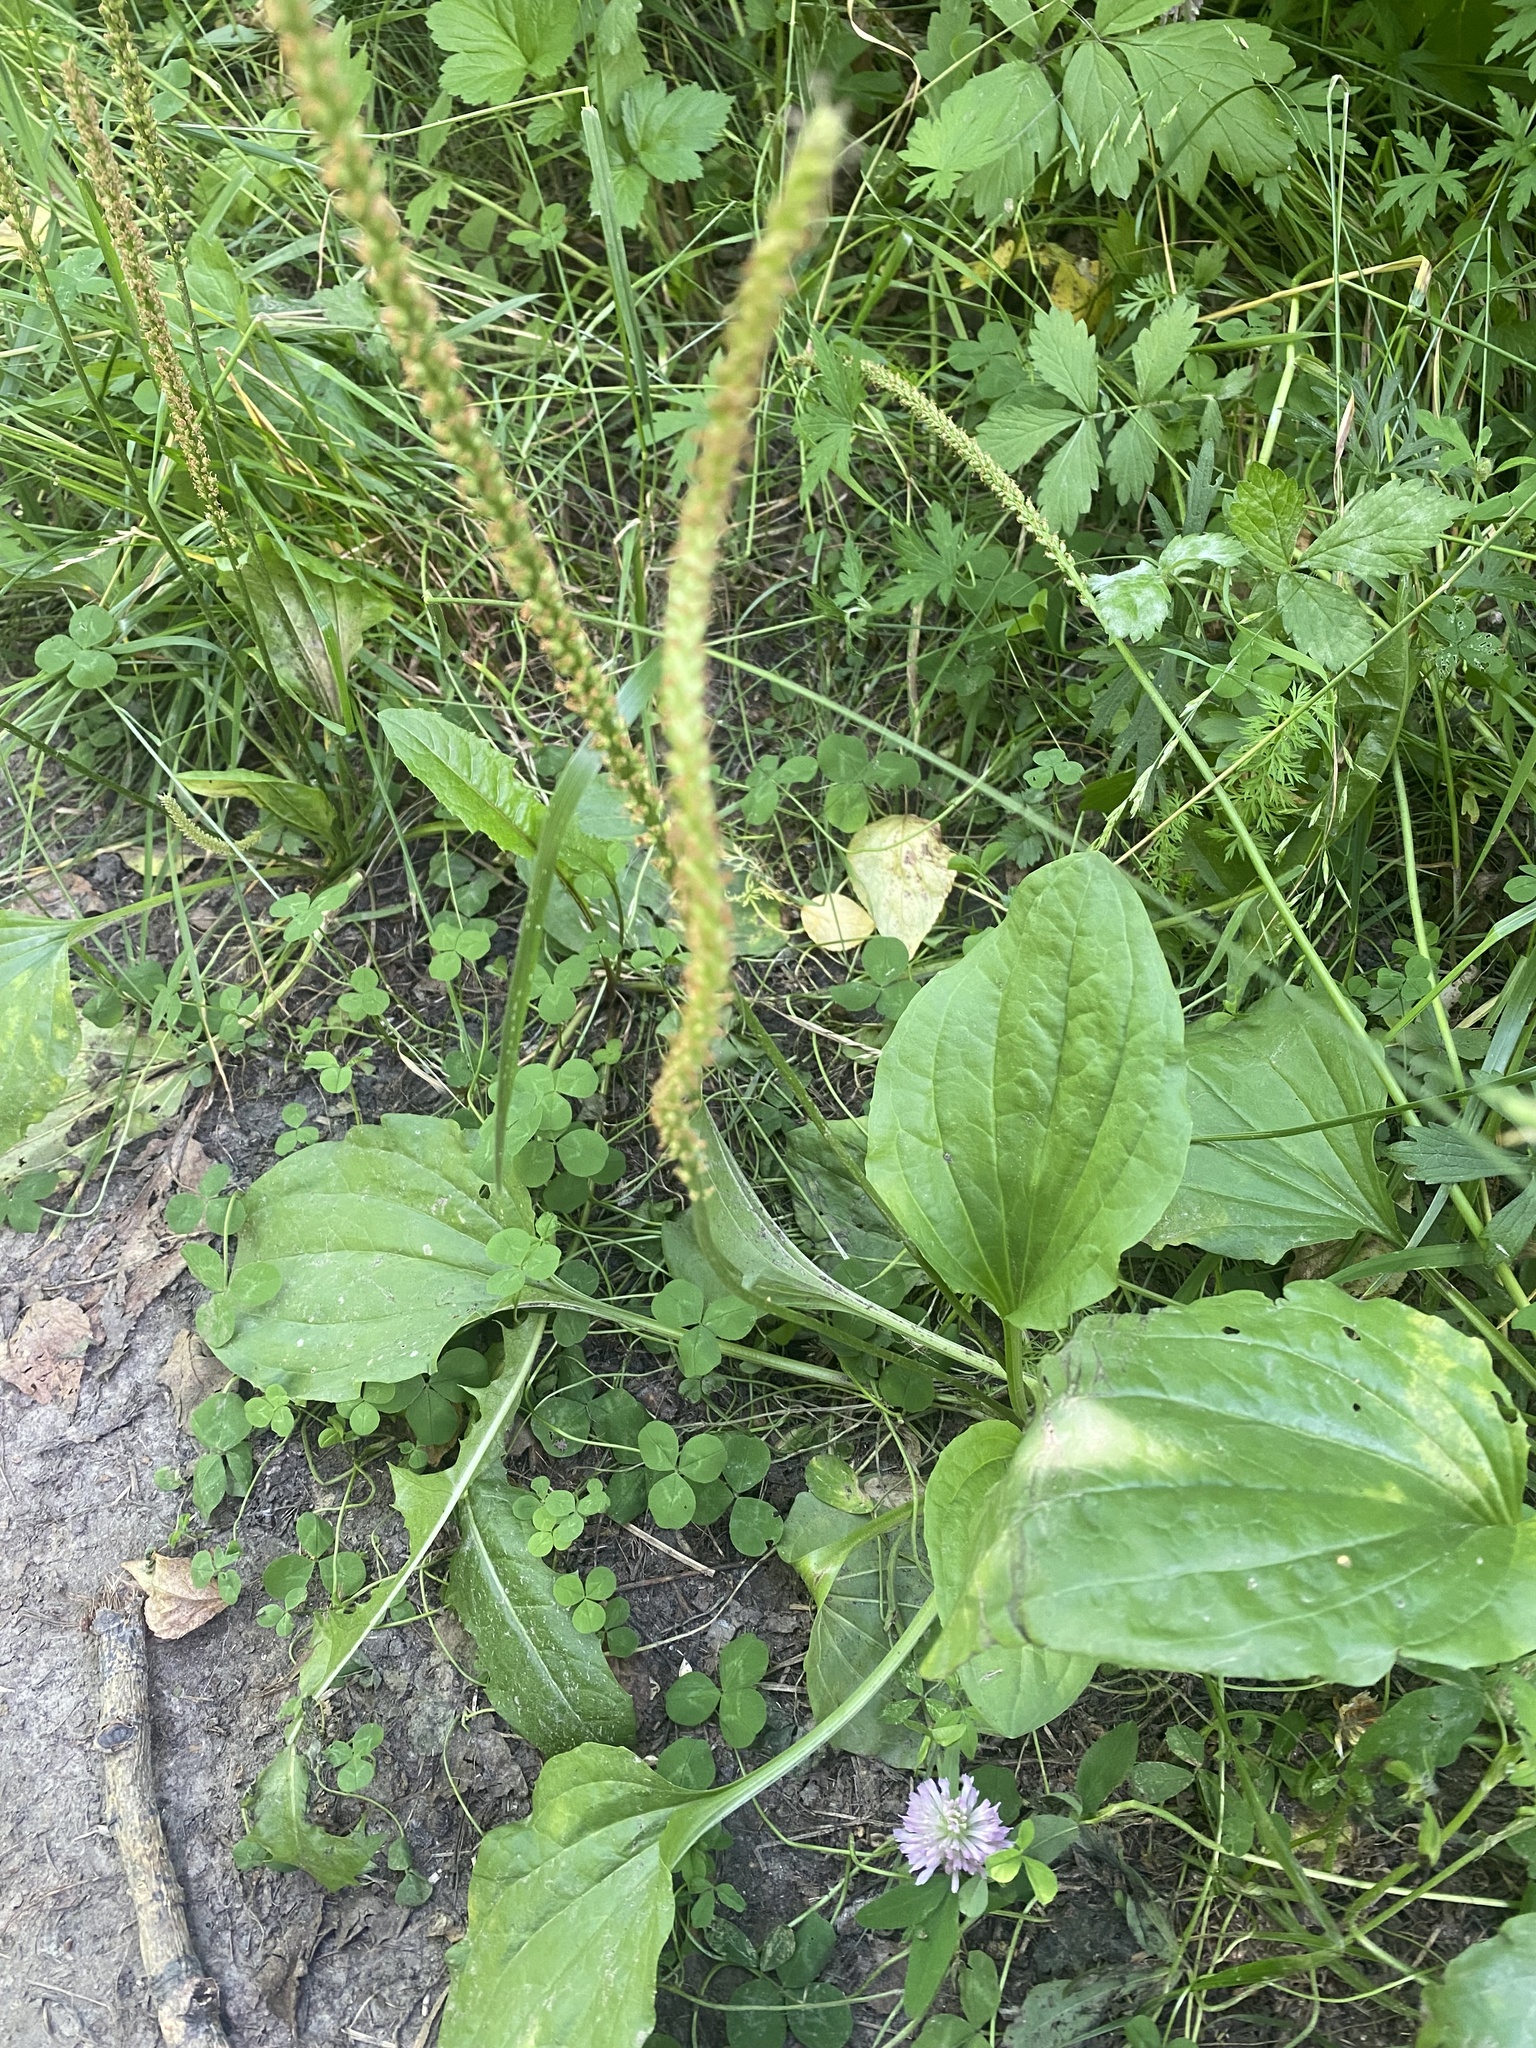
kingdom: Plantae
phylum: Tracheophyta
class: Magnoliopsida
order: Lamiales
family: Plantaginaceae
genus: Plantago
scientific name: Plantago major
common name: Common plantain
